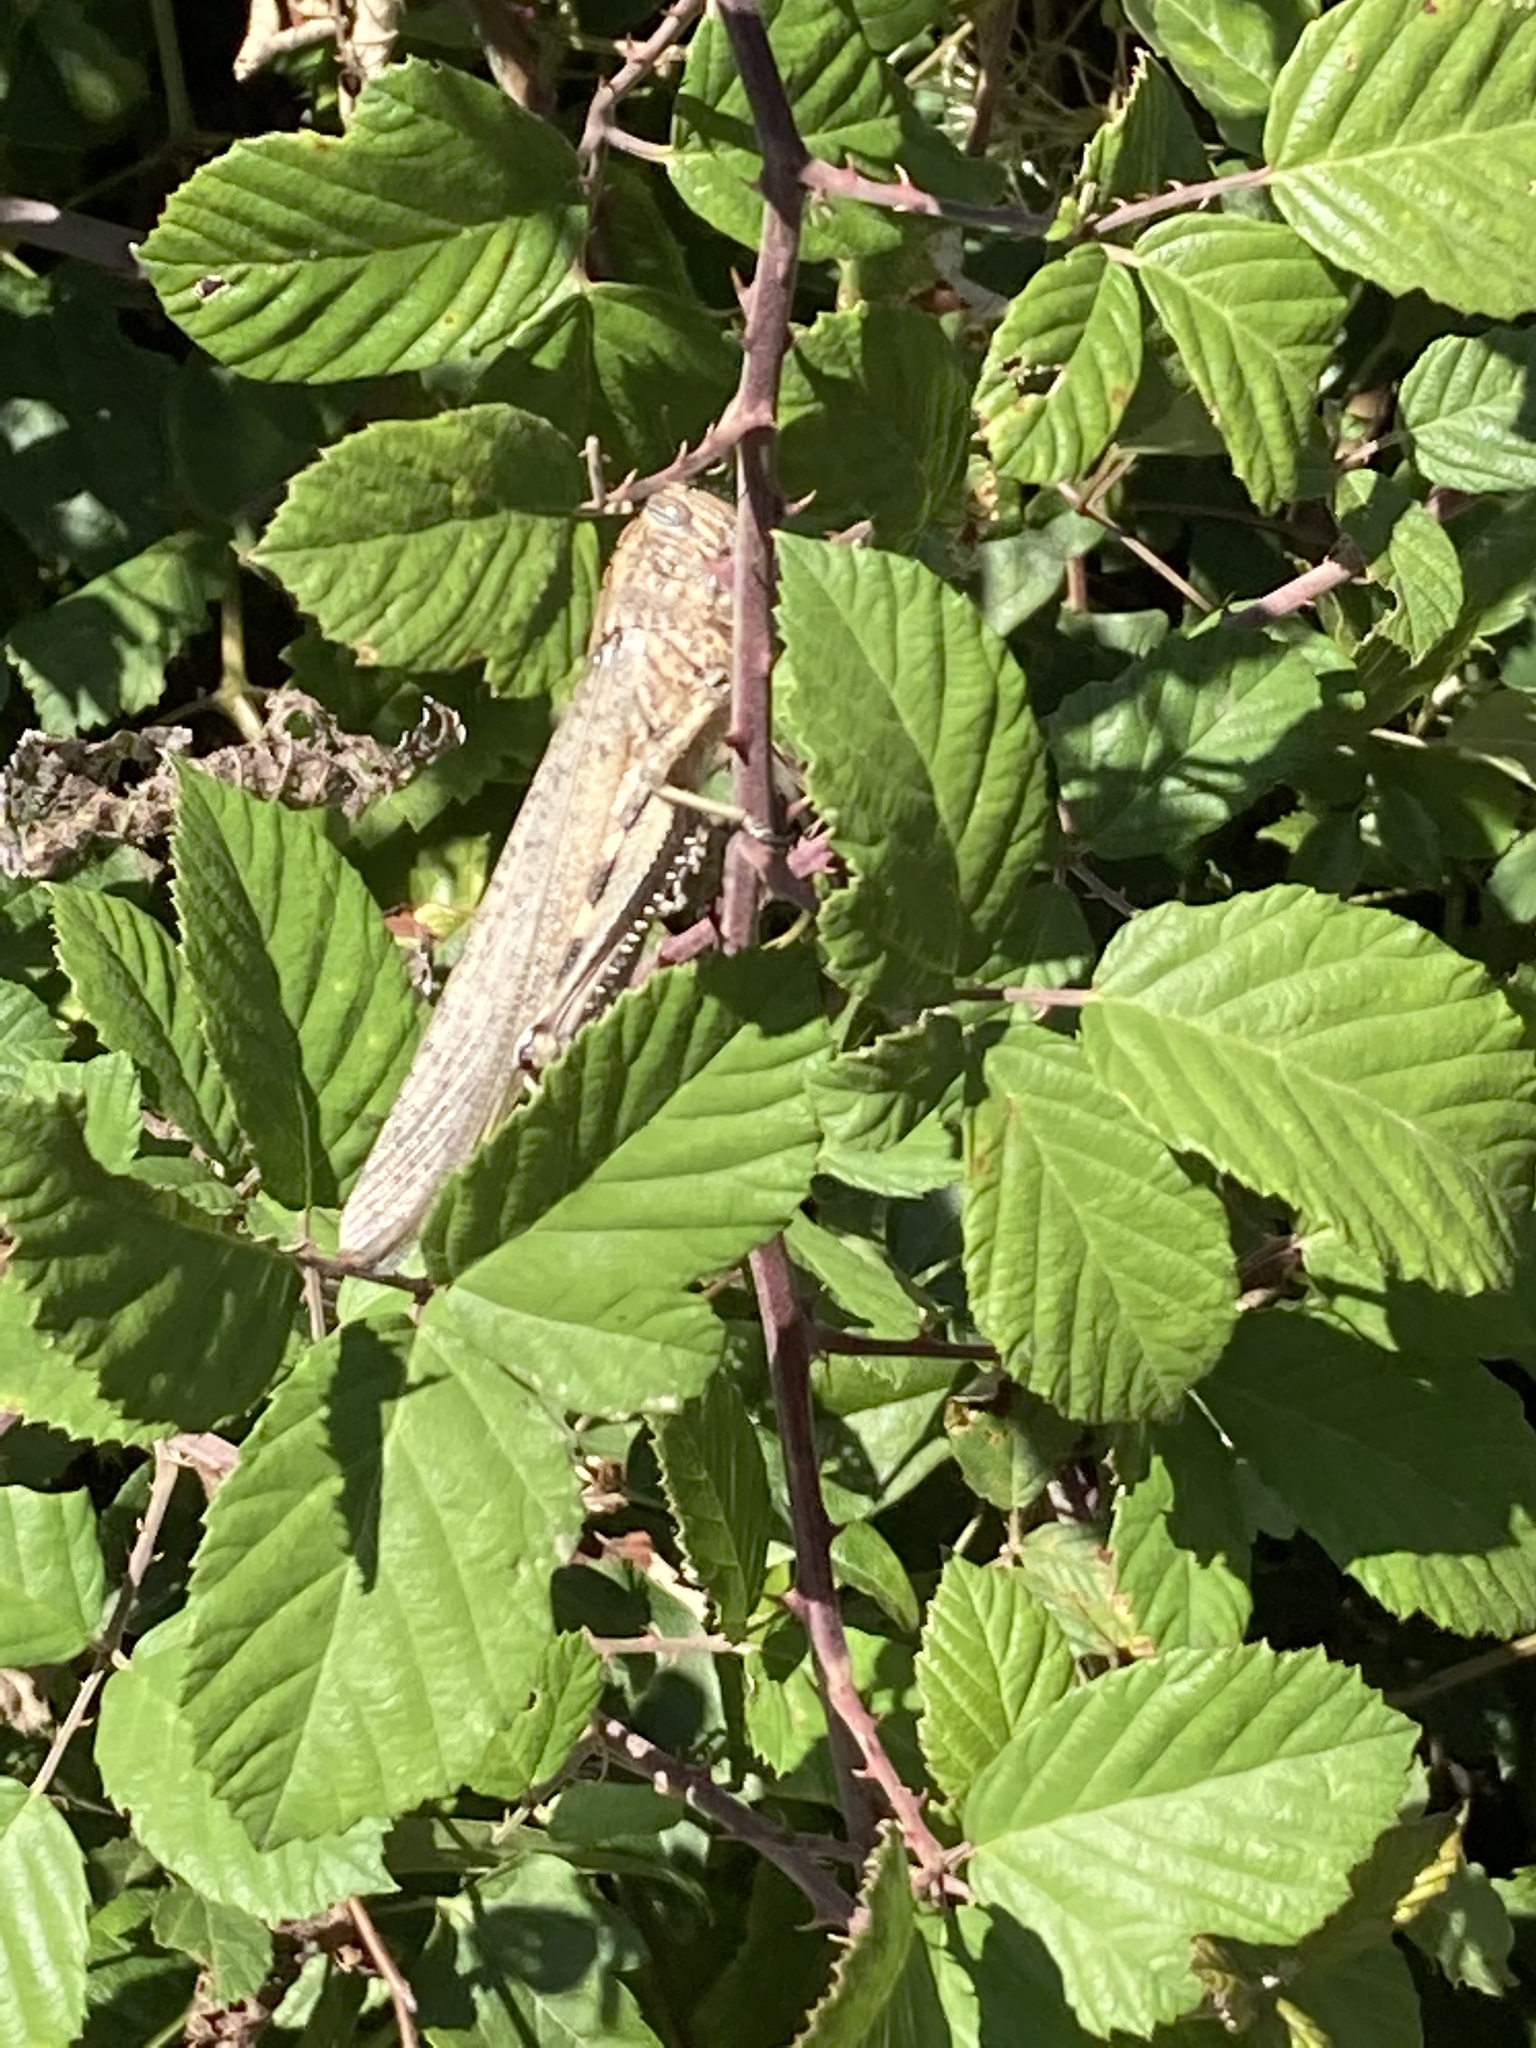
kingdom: Animalia
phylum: Arthropoda
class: Insecta
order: Orthoptera
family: Acrididae
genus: Anacridium
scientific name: Anacridium aegyptium
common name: Egyptian grasshopper
